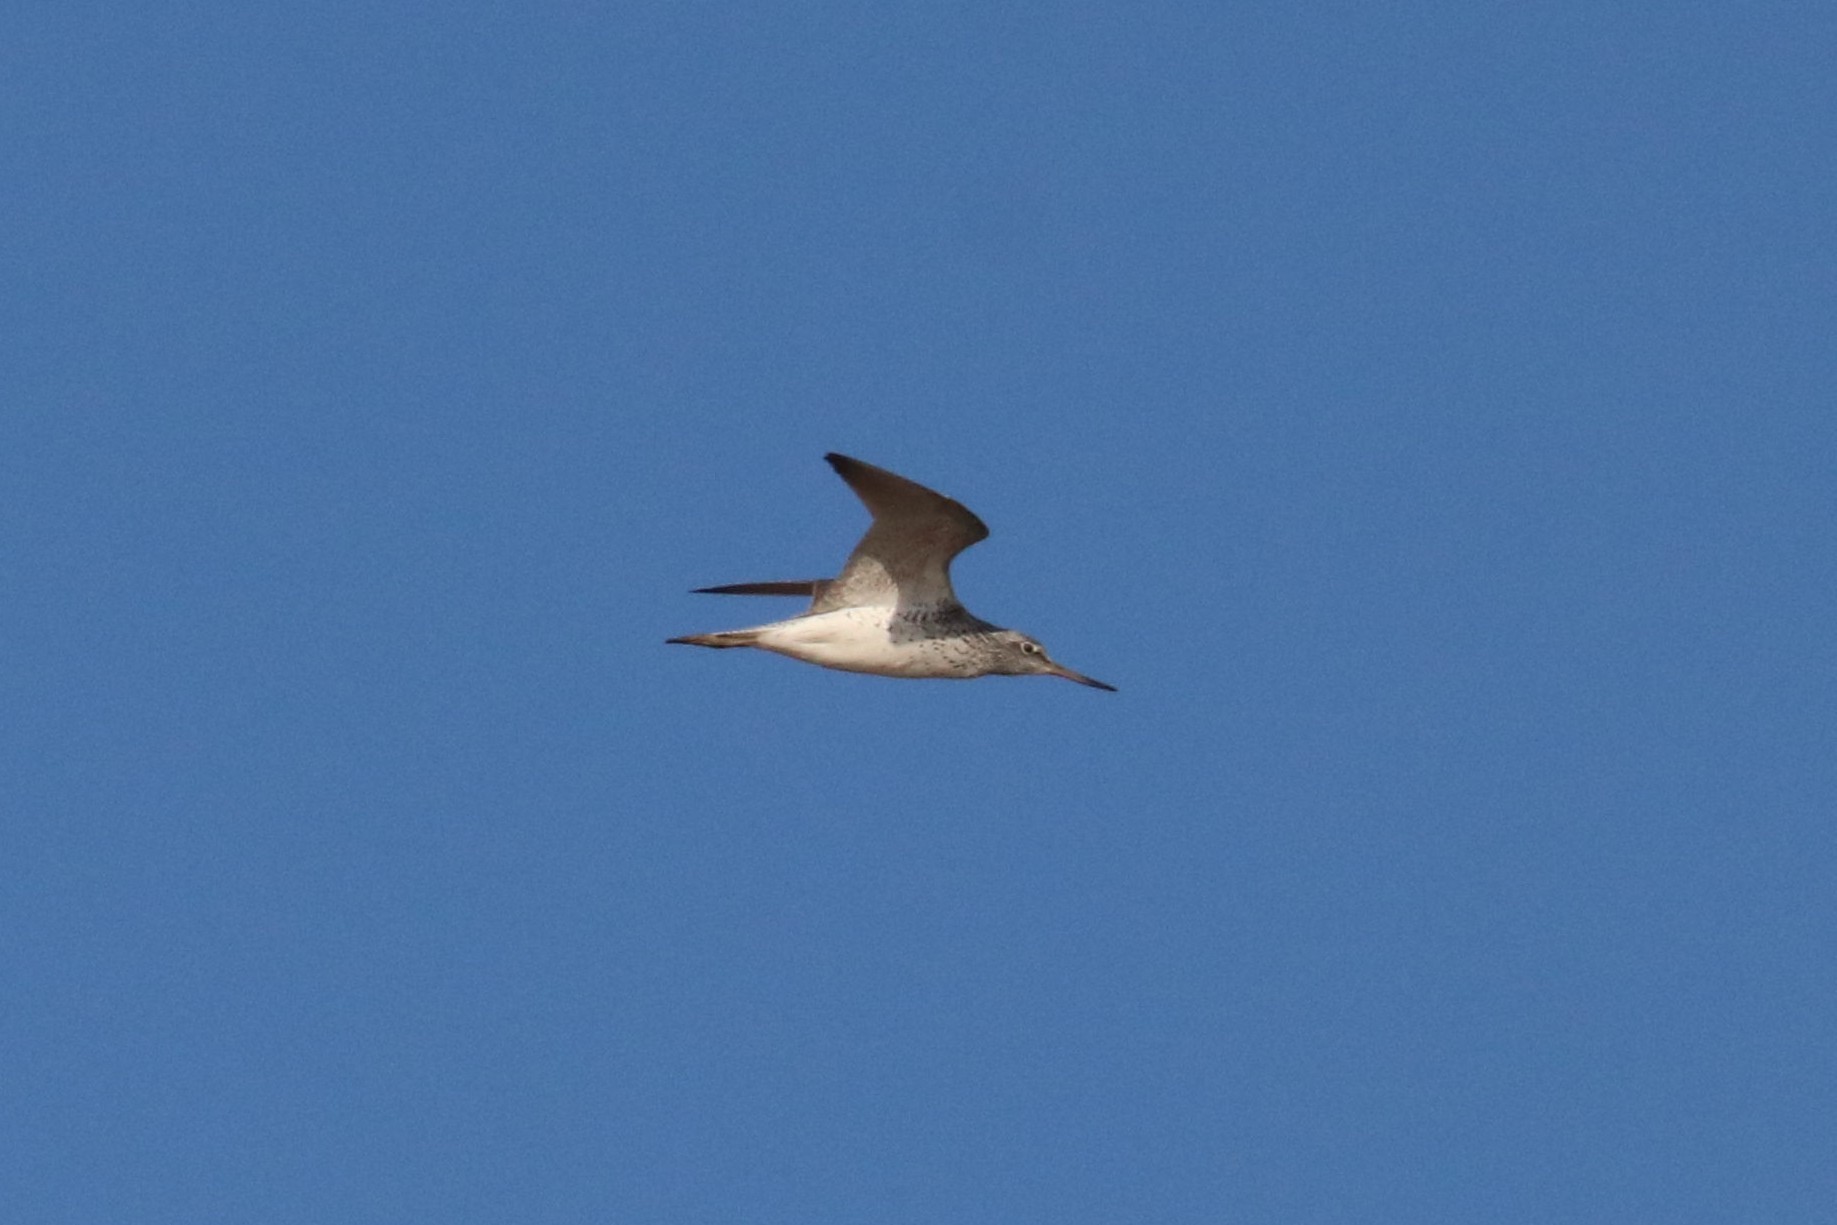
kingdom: Animalia
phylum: Chordata
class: Aves
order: Charadriiformes
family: Scolopacidae
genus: Tringa
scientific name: Tringa nebularia
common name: Common greenshank
